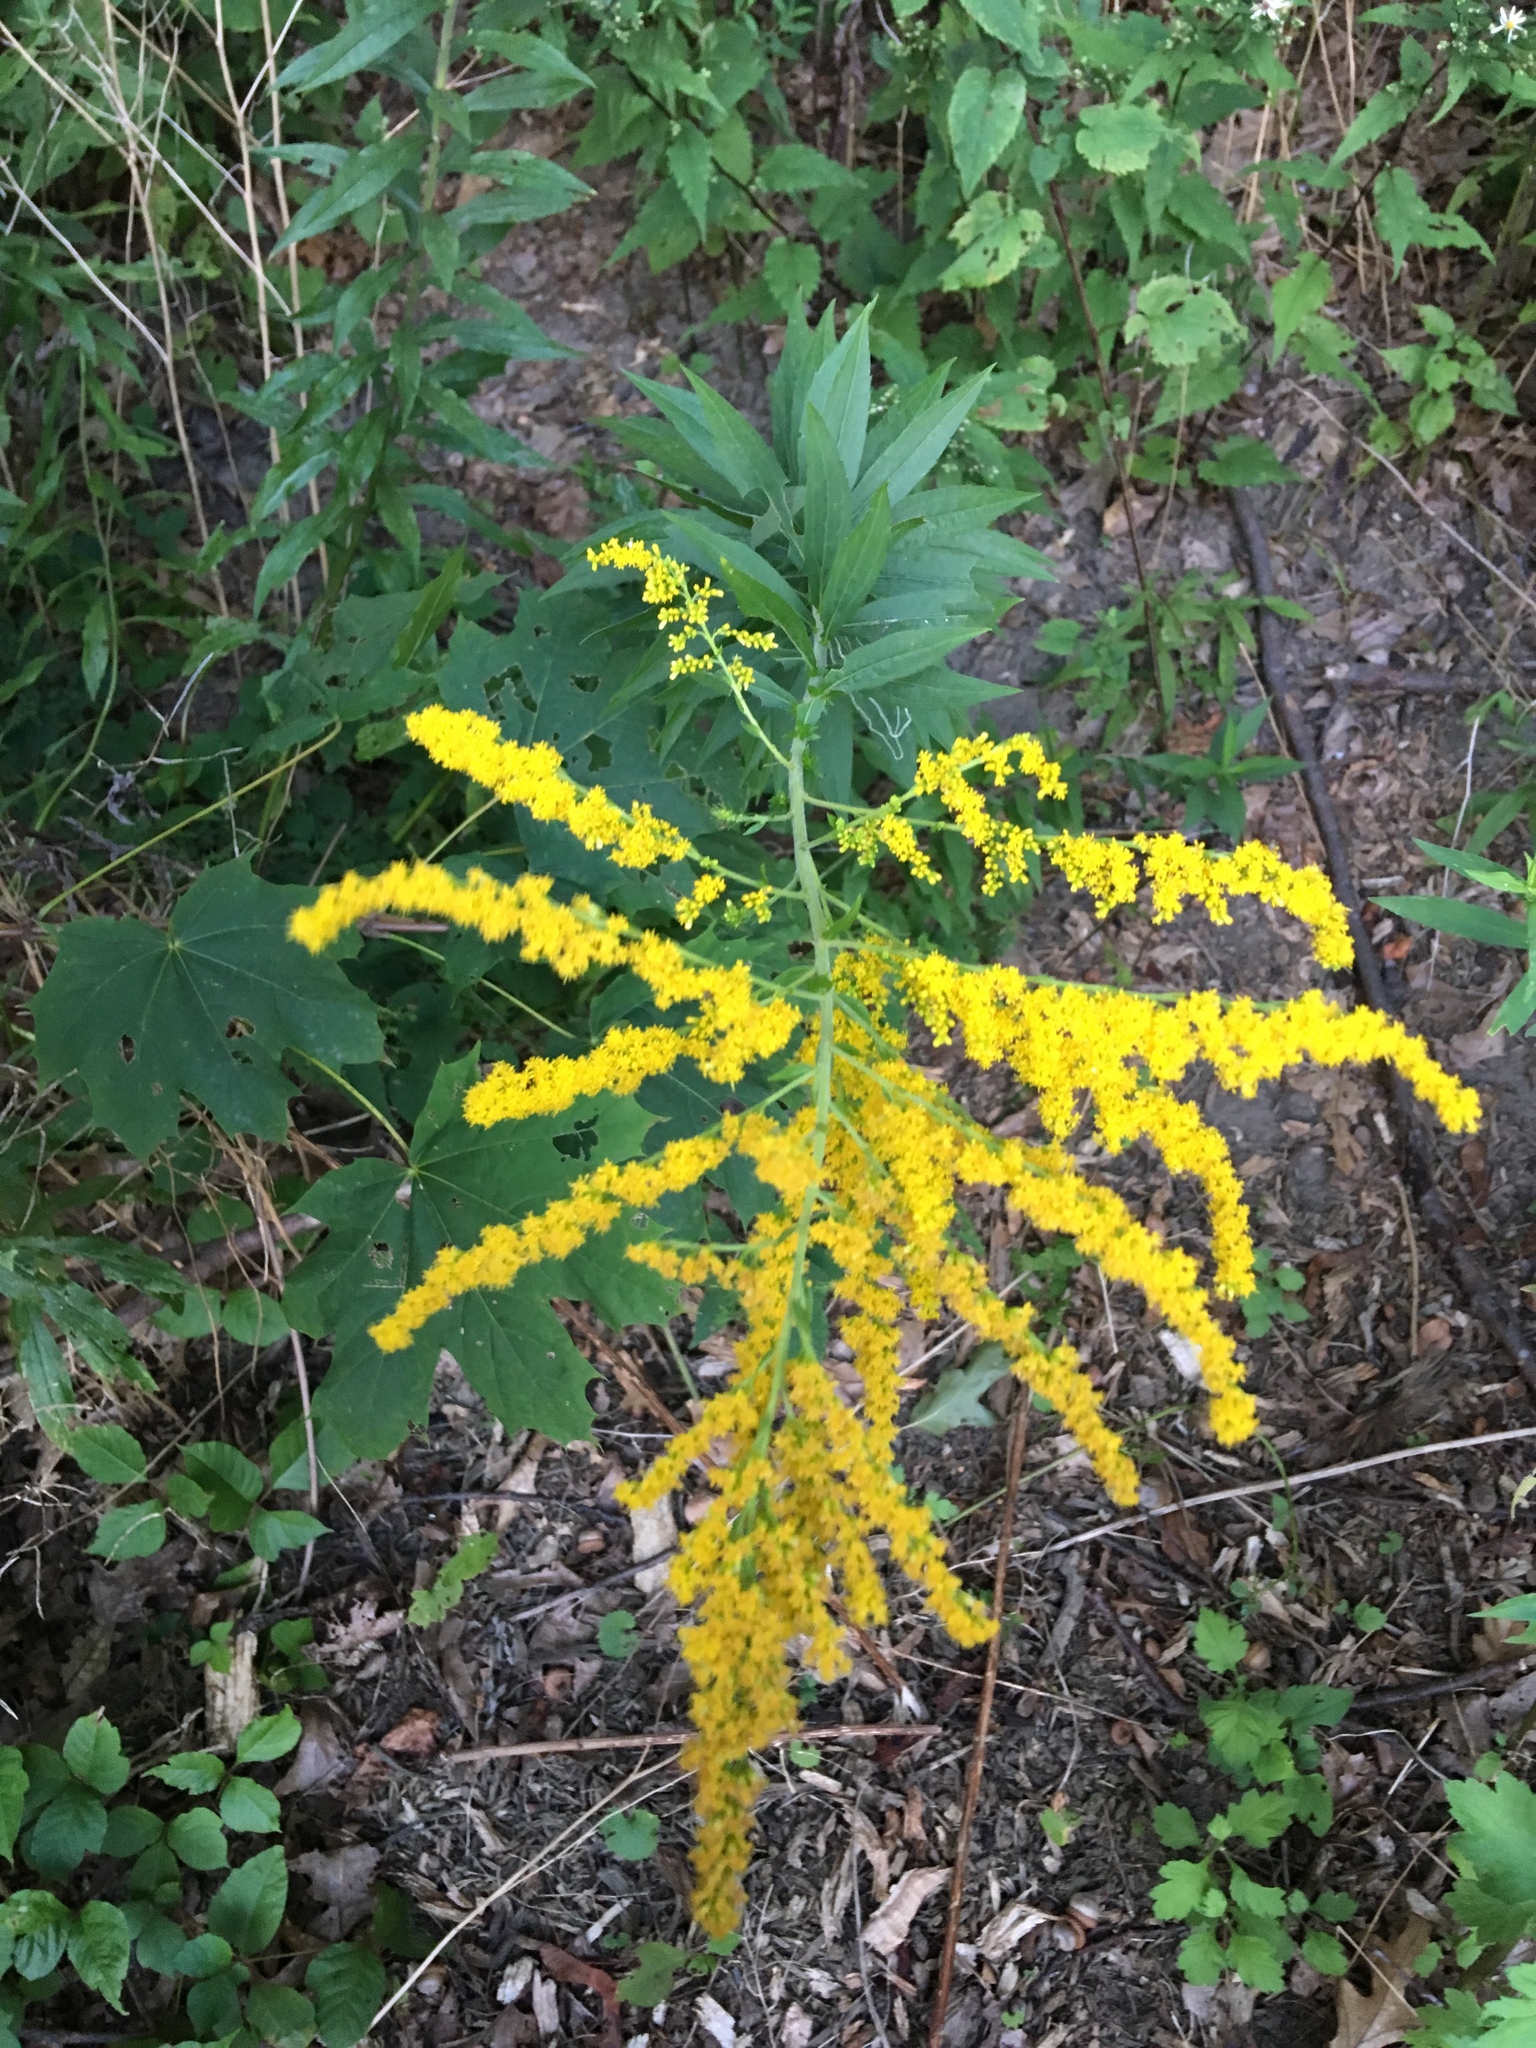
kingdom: Plantae
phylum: Tracheophyta
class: Magnoliopsida
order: Asterales
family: Asteraceae
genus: Solidago
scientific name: Solidago altissima
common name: Late goldenrod
